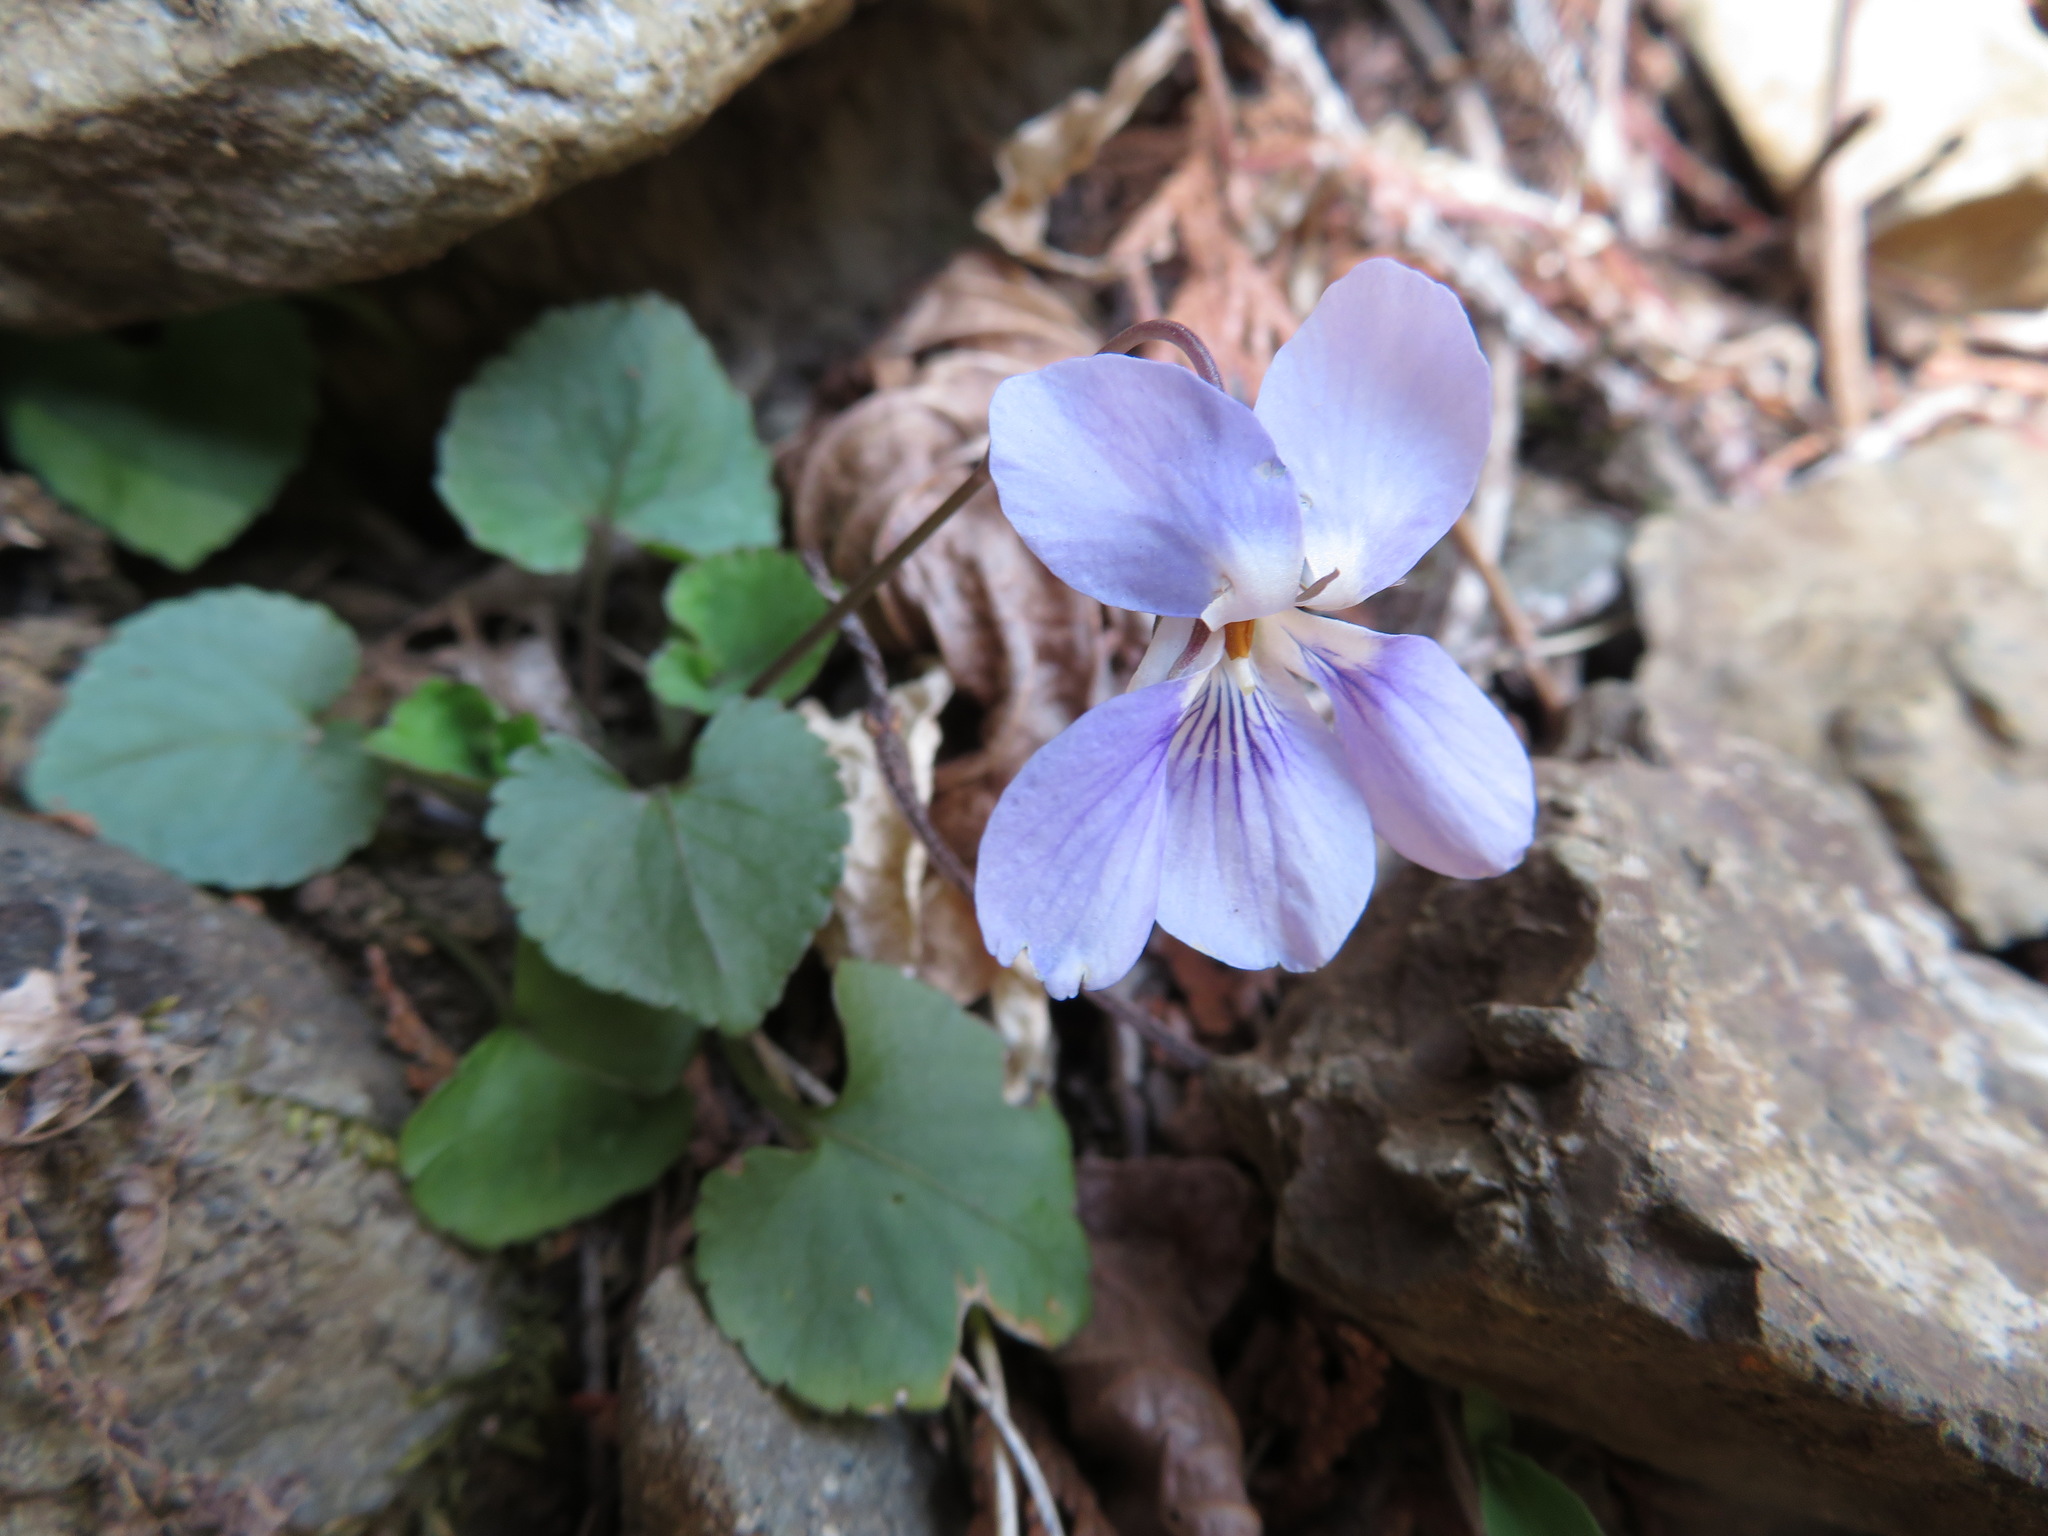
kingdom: Plantae
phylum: Tracheophyta
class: Magnoliopsida
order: Malpighiales
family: Violaceae
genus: Viola
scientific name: Viola grypoceras
